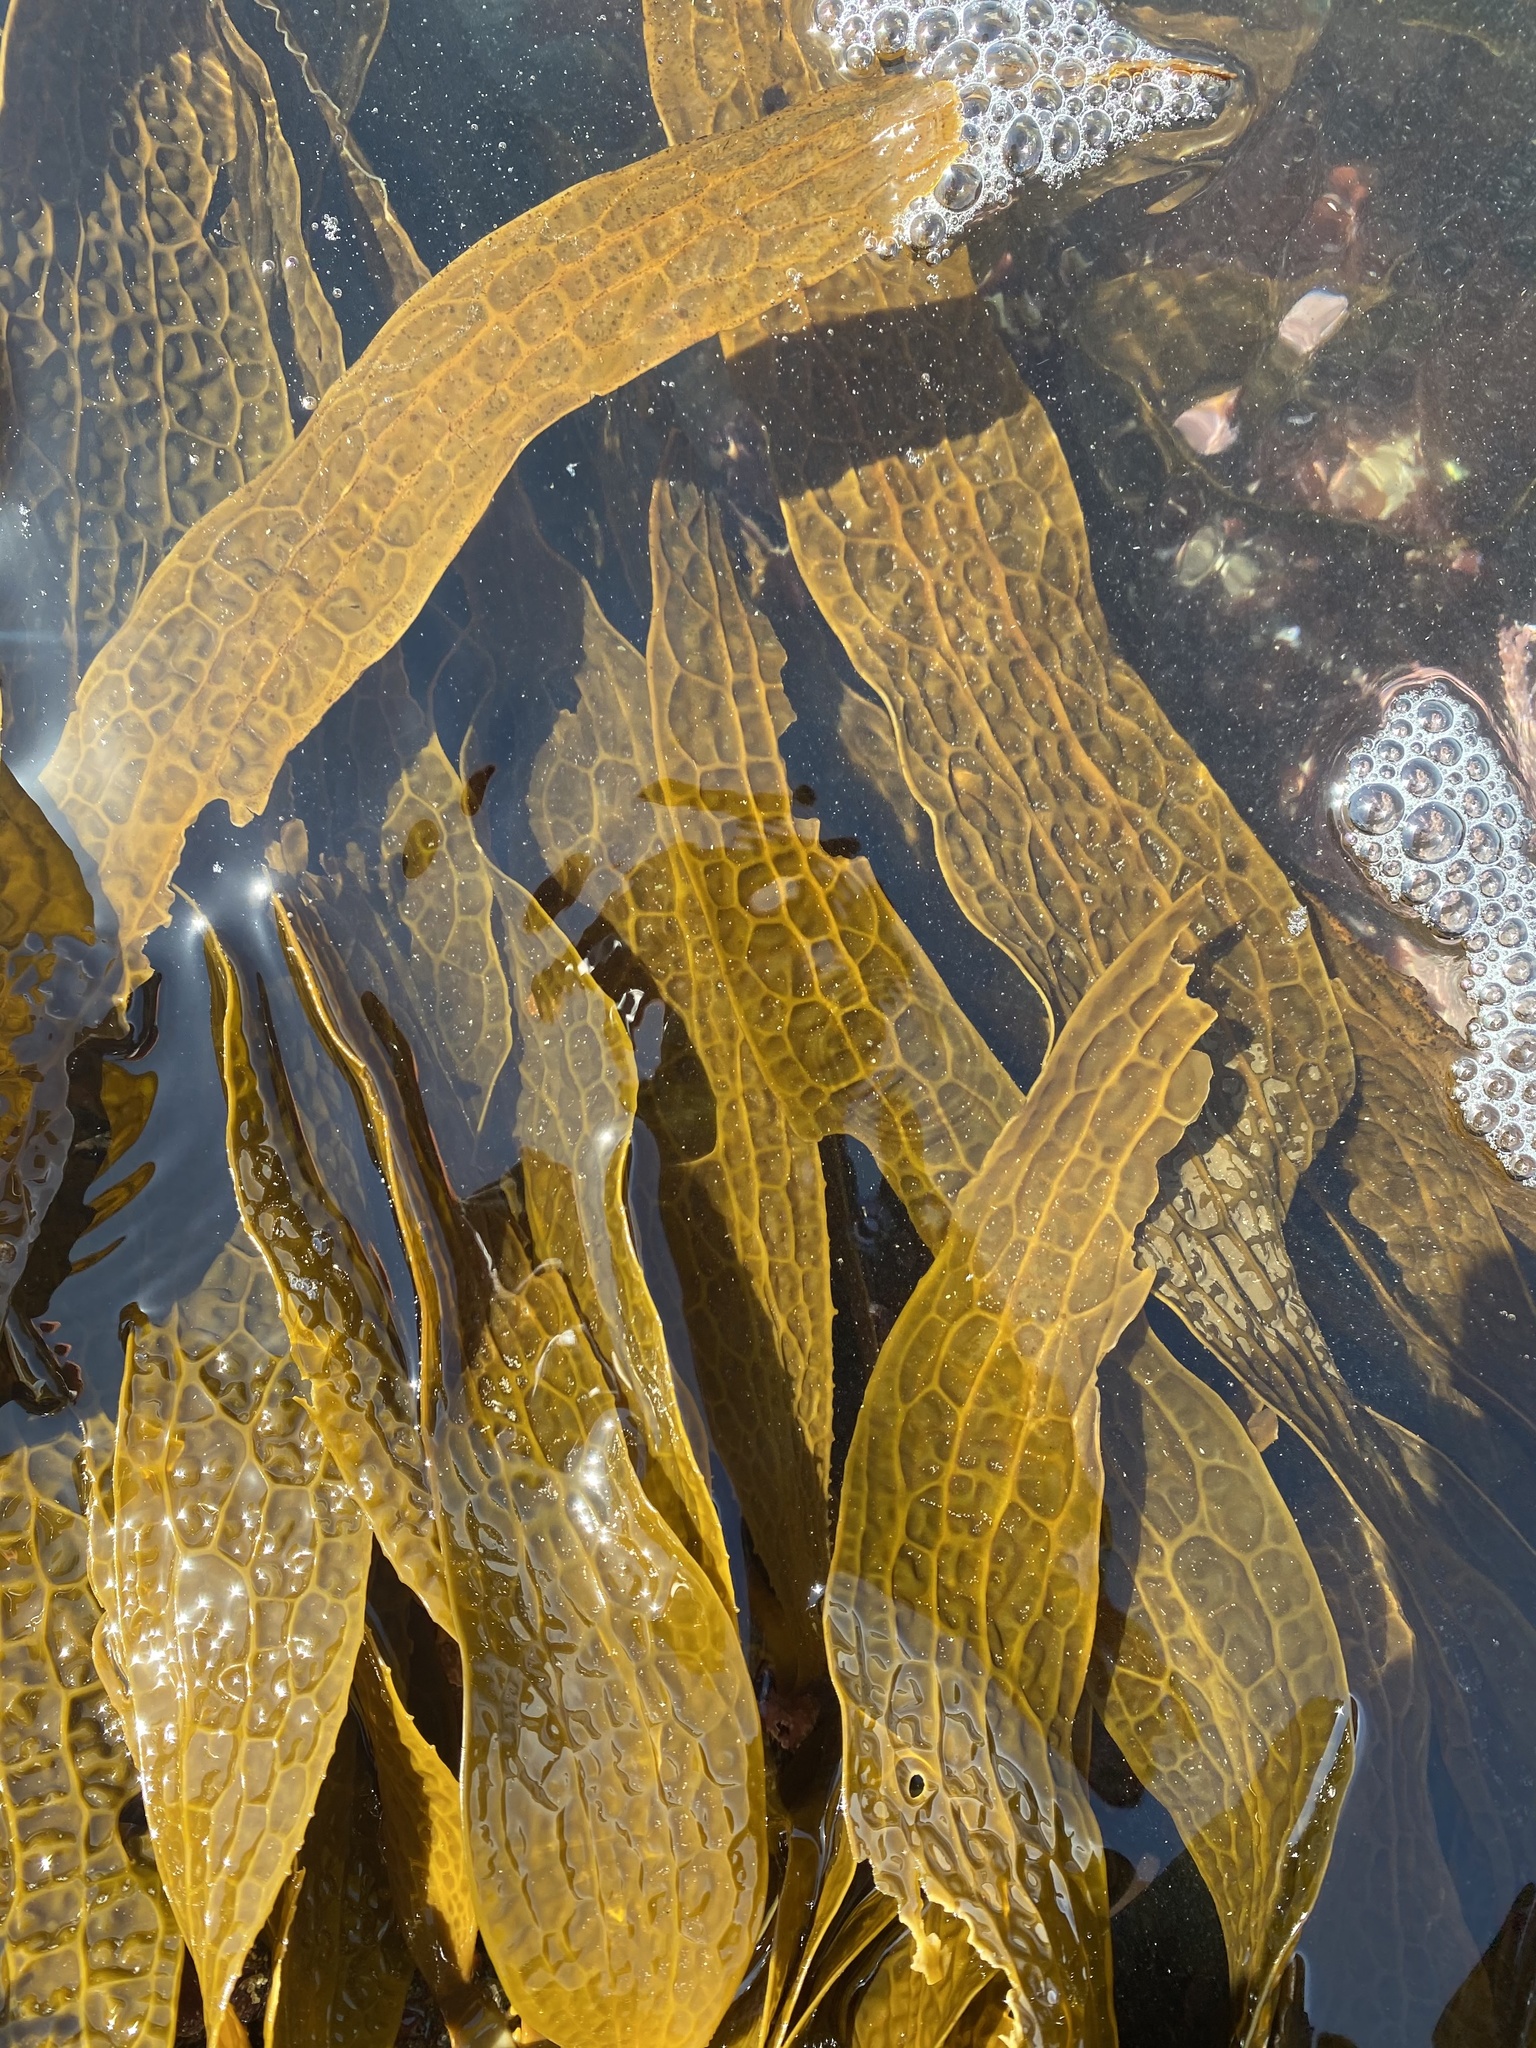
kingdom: Chromista
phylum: Ochrophyta
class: Phaeophyceae
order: Laminariales
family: Costariaceae
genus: Dictyoneurum
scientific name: Dictyoneurum californicum
